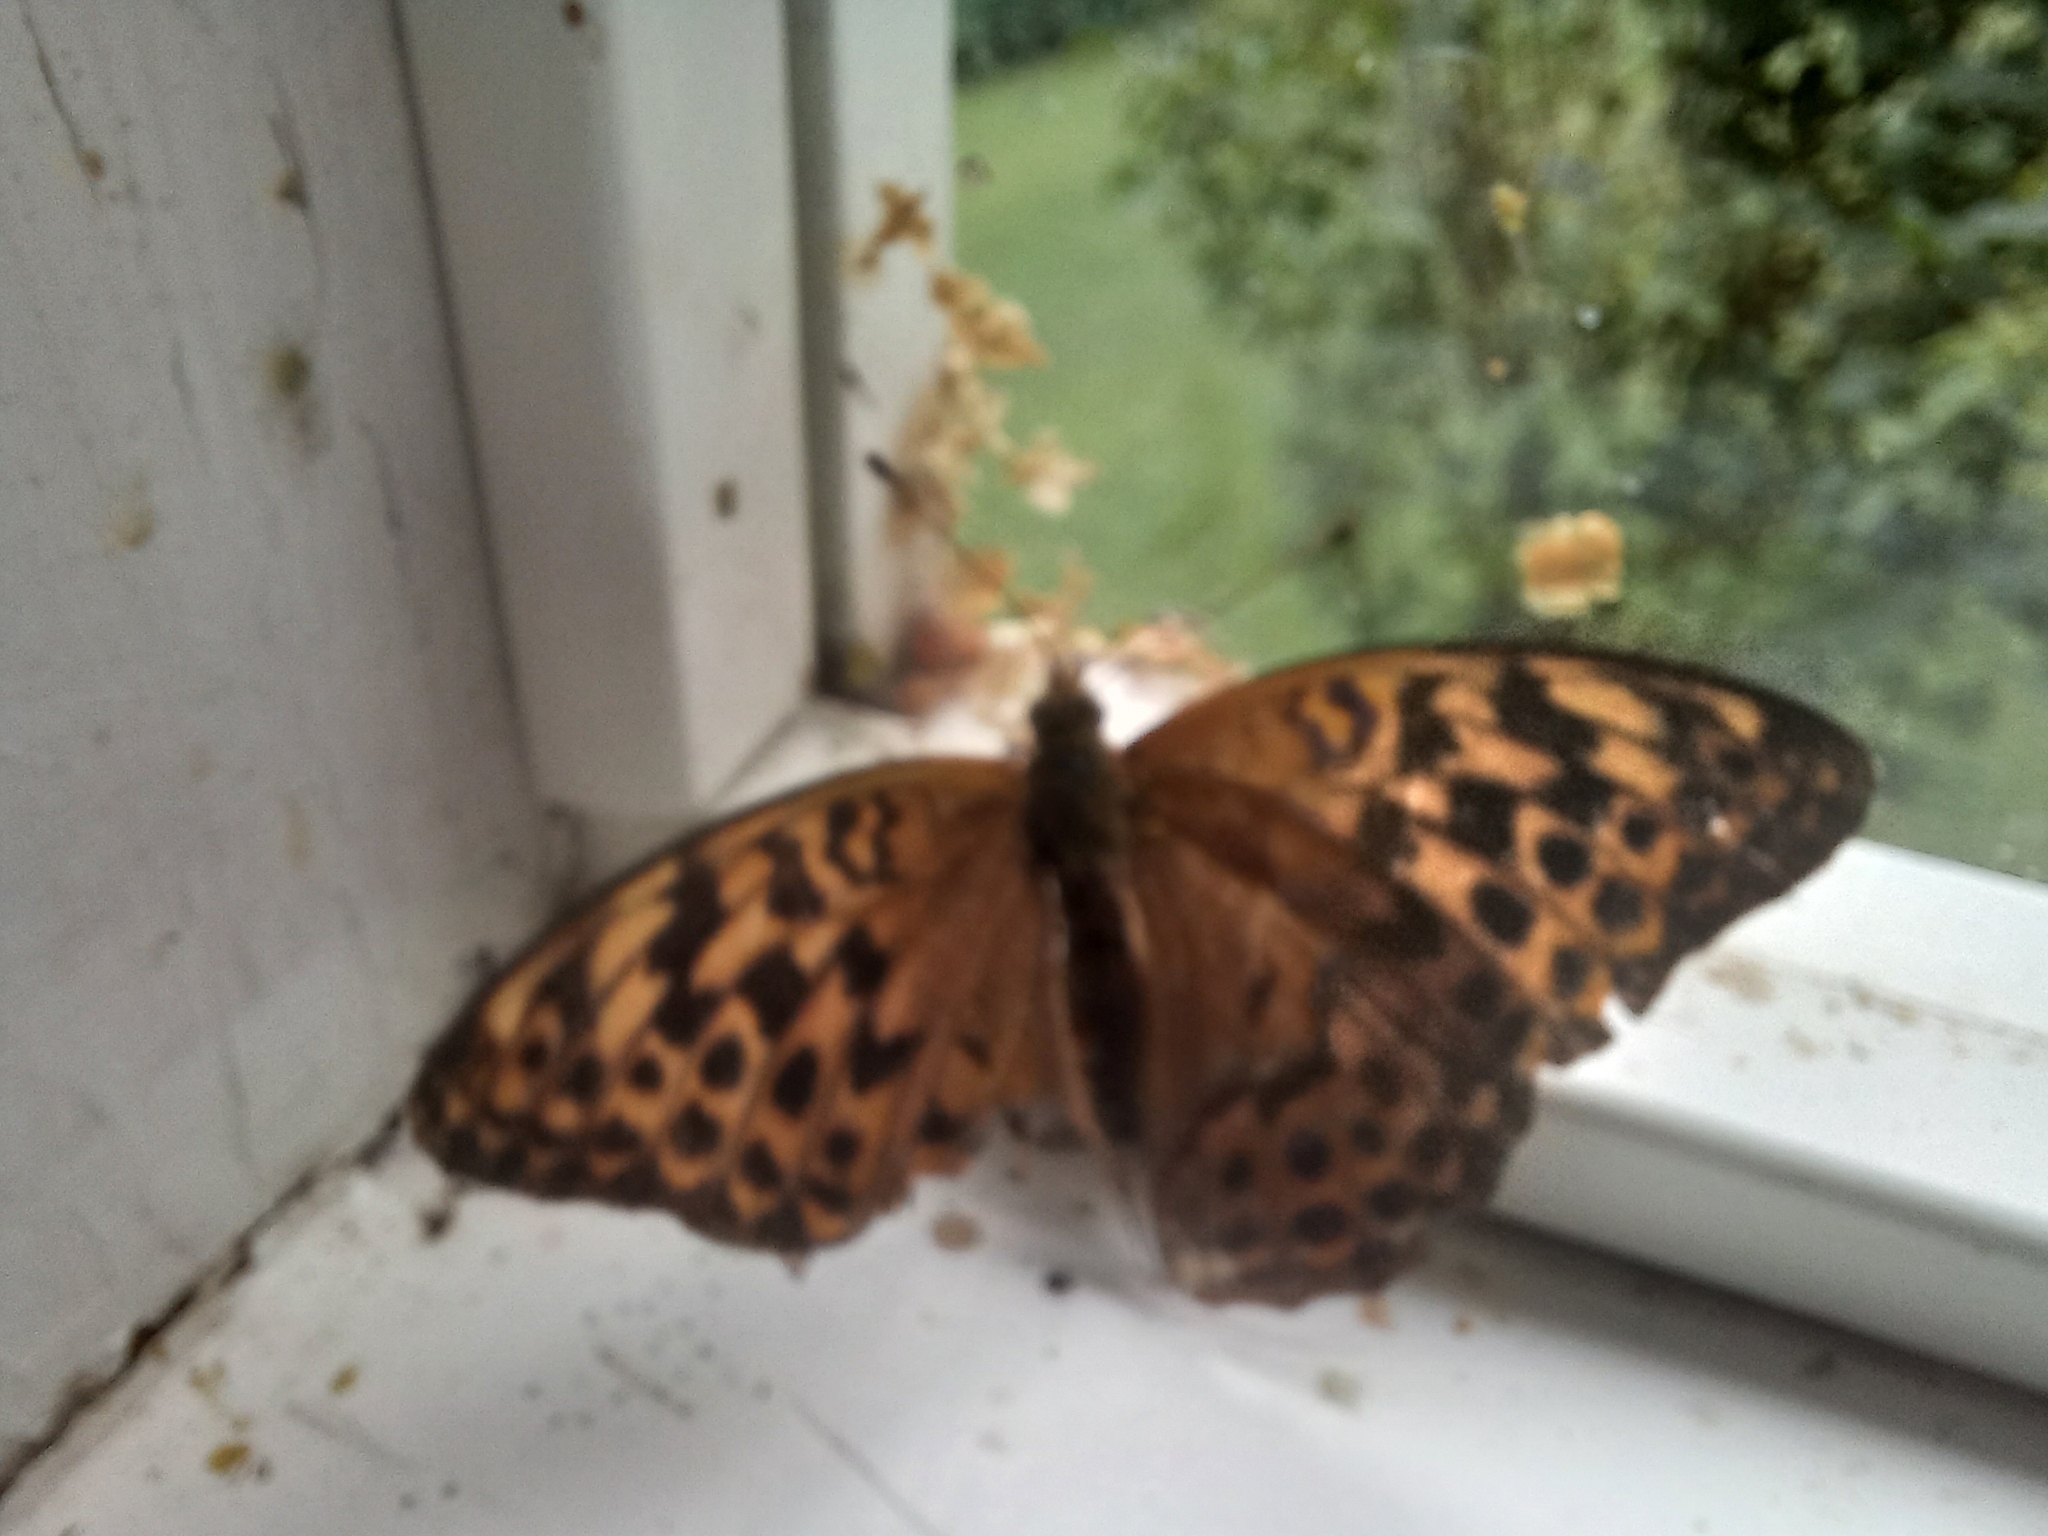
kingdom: Animalia
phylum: Arthropoda
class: Insecta
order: Lepidoptera
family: Nymphalidae
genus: Argynnis
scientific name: Argynnis paphia
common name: Silver-washed fritillary
